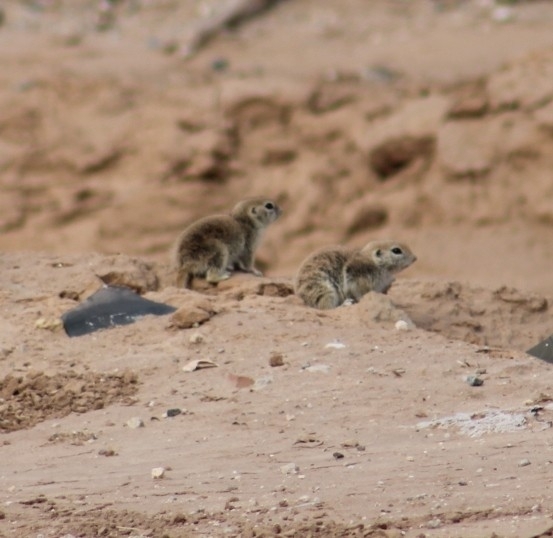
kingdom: Animalia
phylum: Chordata
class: Mammalia
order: Rodentia
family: Sciuridae
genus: Xerospermophilus
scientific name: Xerospermophilus tereticaudus
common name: Round-tailed ground squirrel
